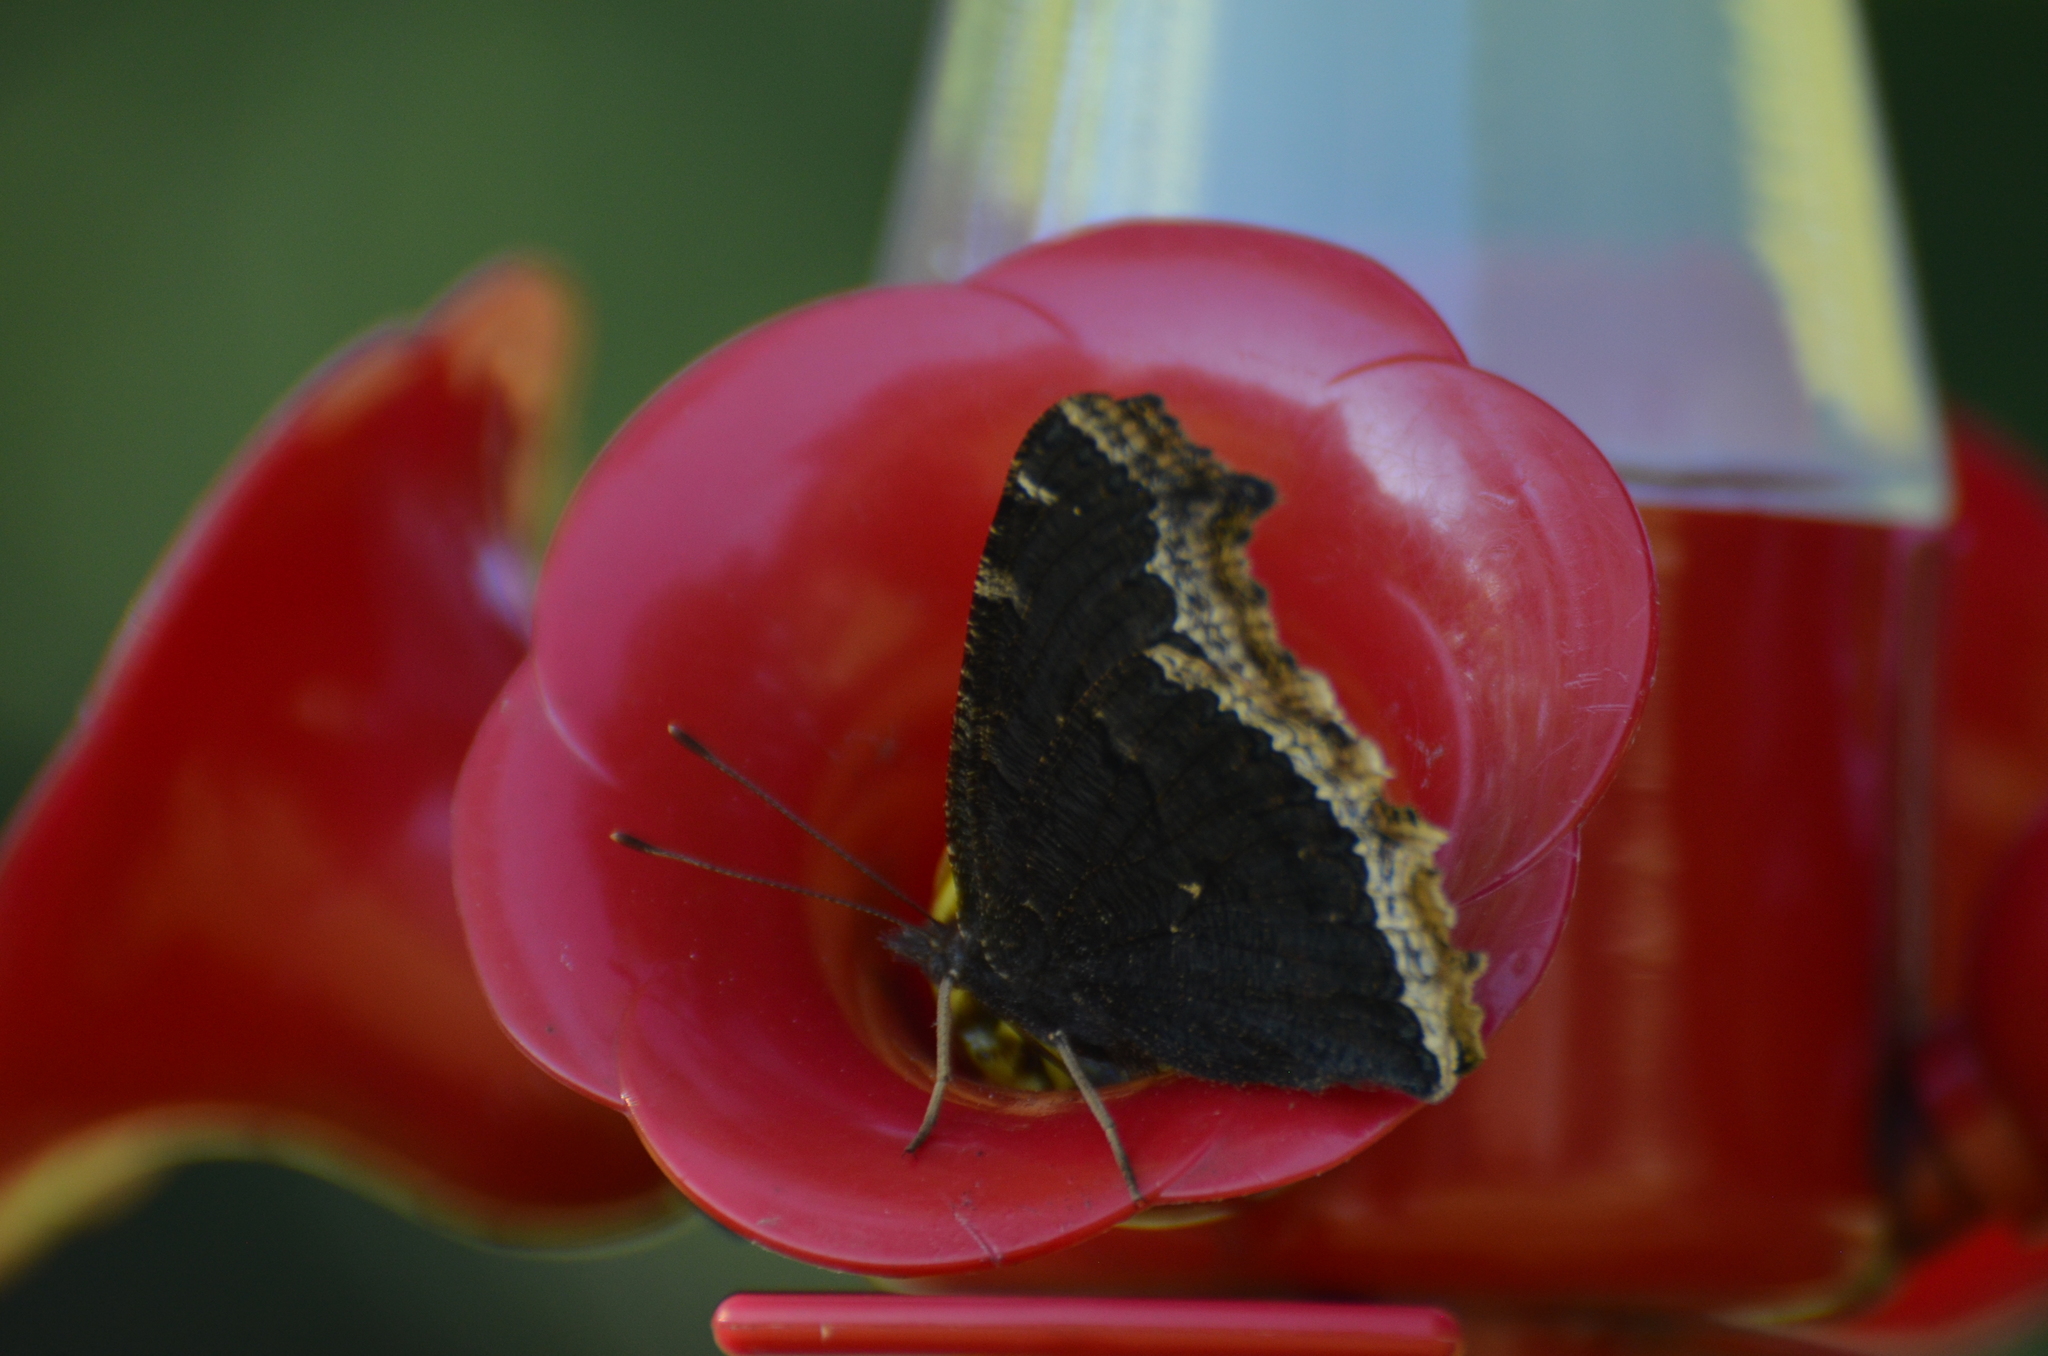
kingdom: Animalia
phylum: Arthropoda
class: Insecta
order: Lepidoptera
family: Nymphalidae
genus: Nymphalis
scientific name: Nymphalis antiopa
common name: Camberwell beauty
